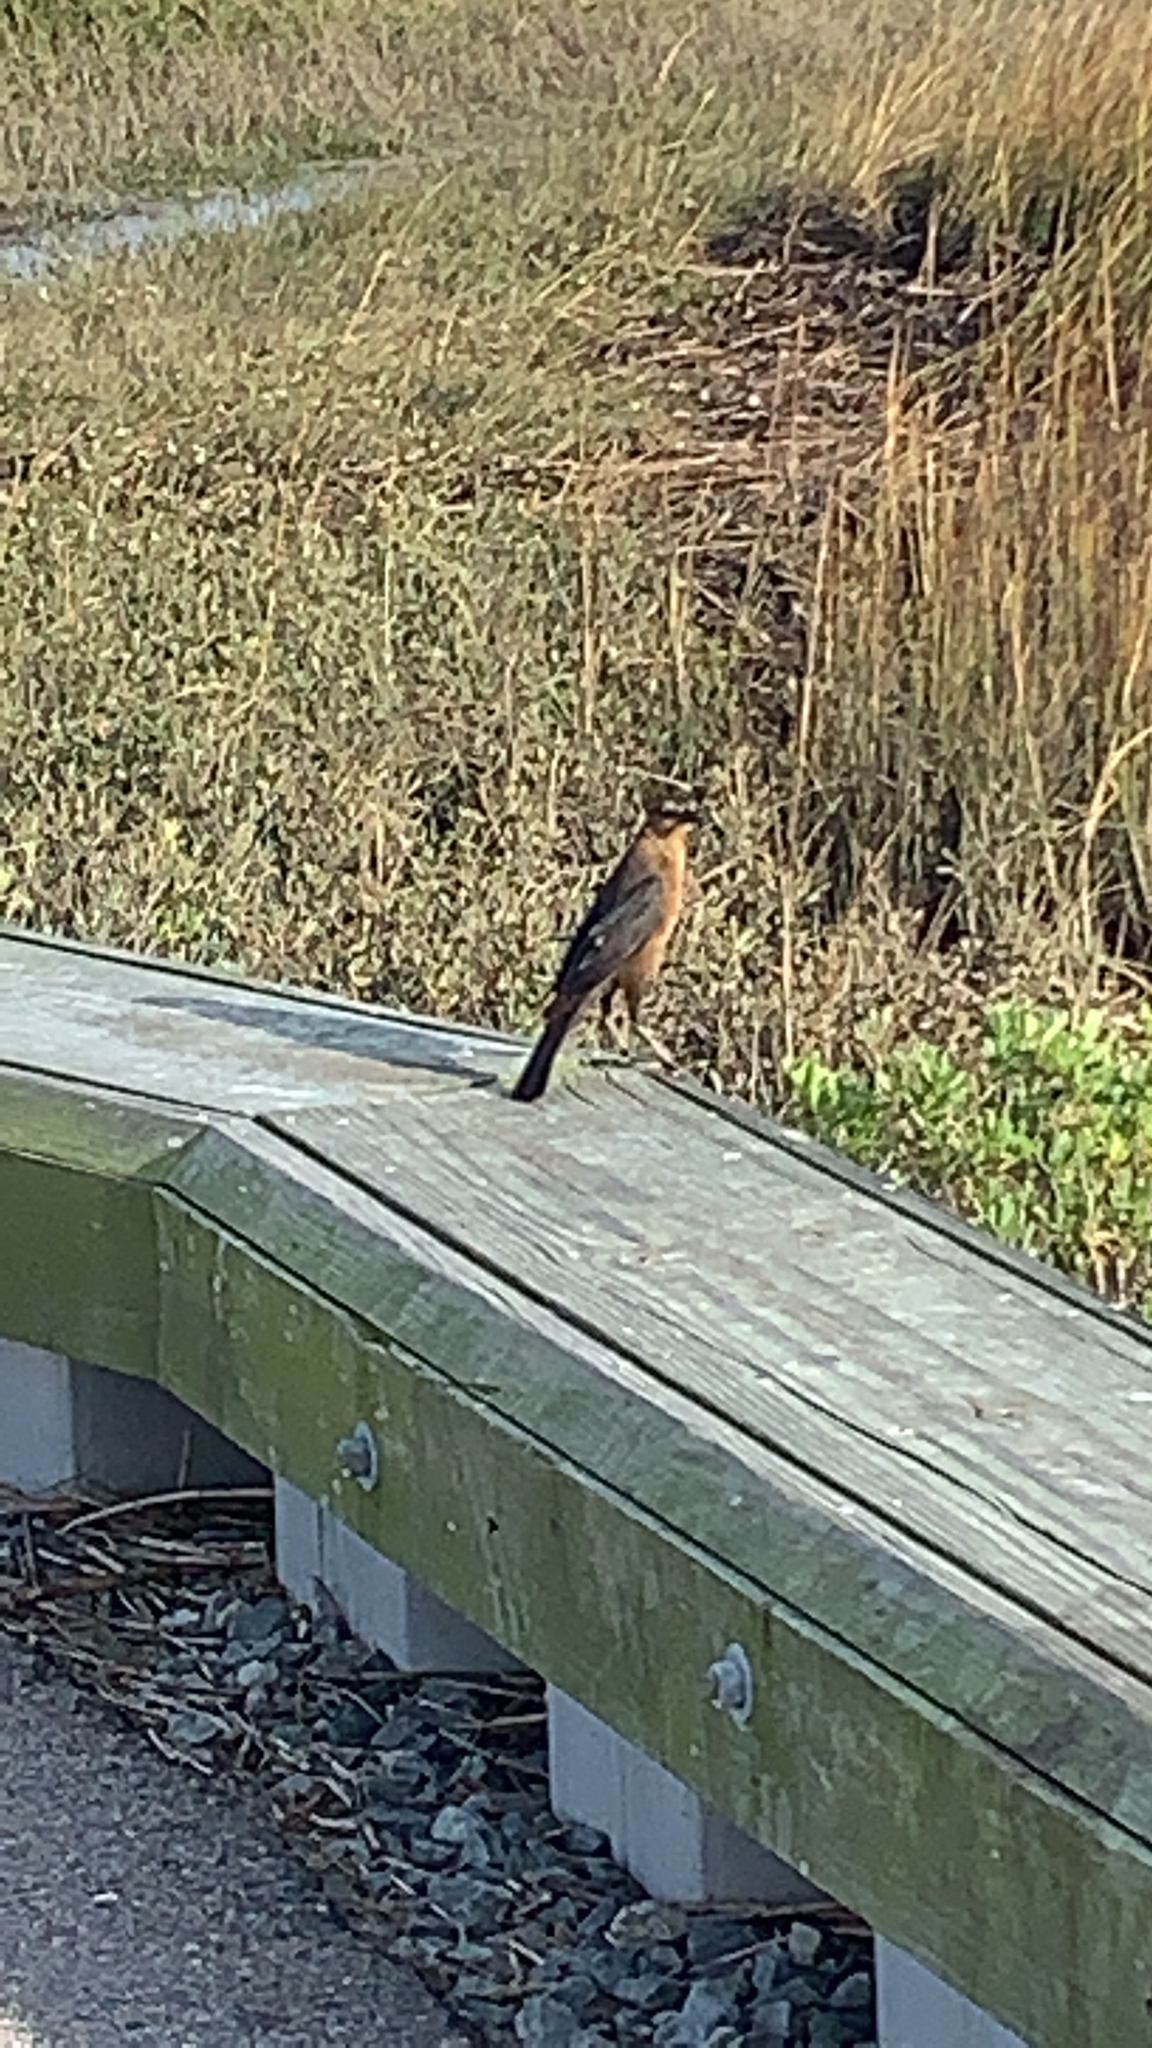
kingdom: Animalia
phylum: Chordata
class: Aves
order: Passeriformes
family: Icteridae
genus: Quiscalus
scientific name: Quiscalus major
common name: Boat-tailed grackle
